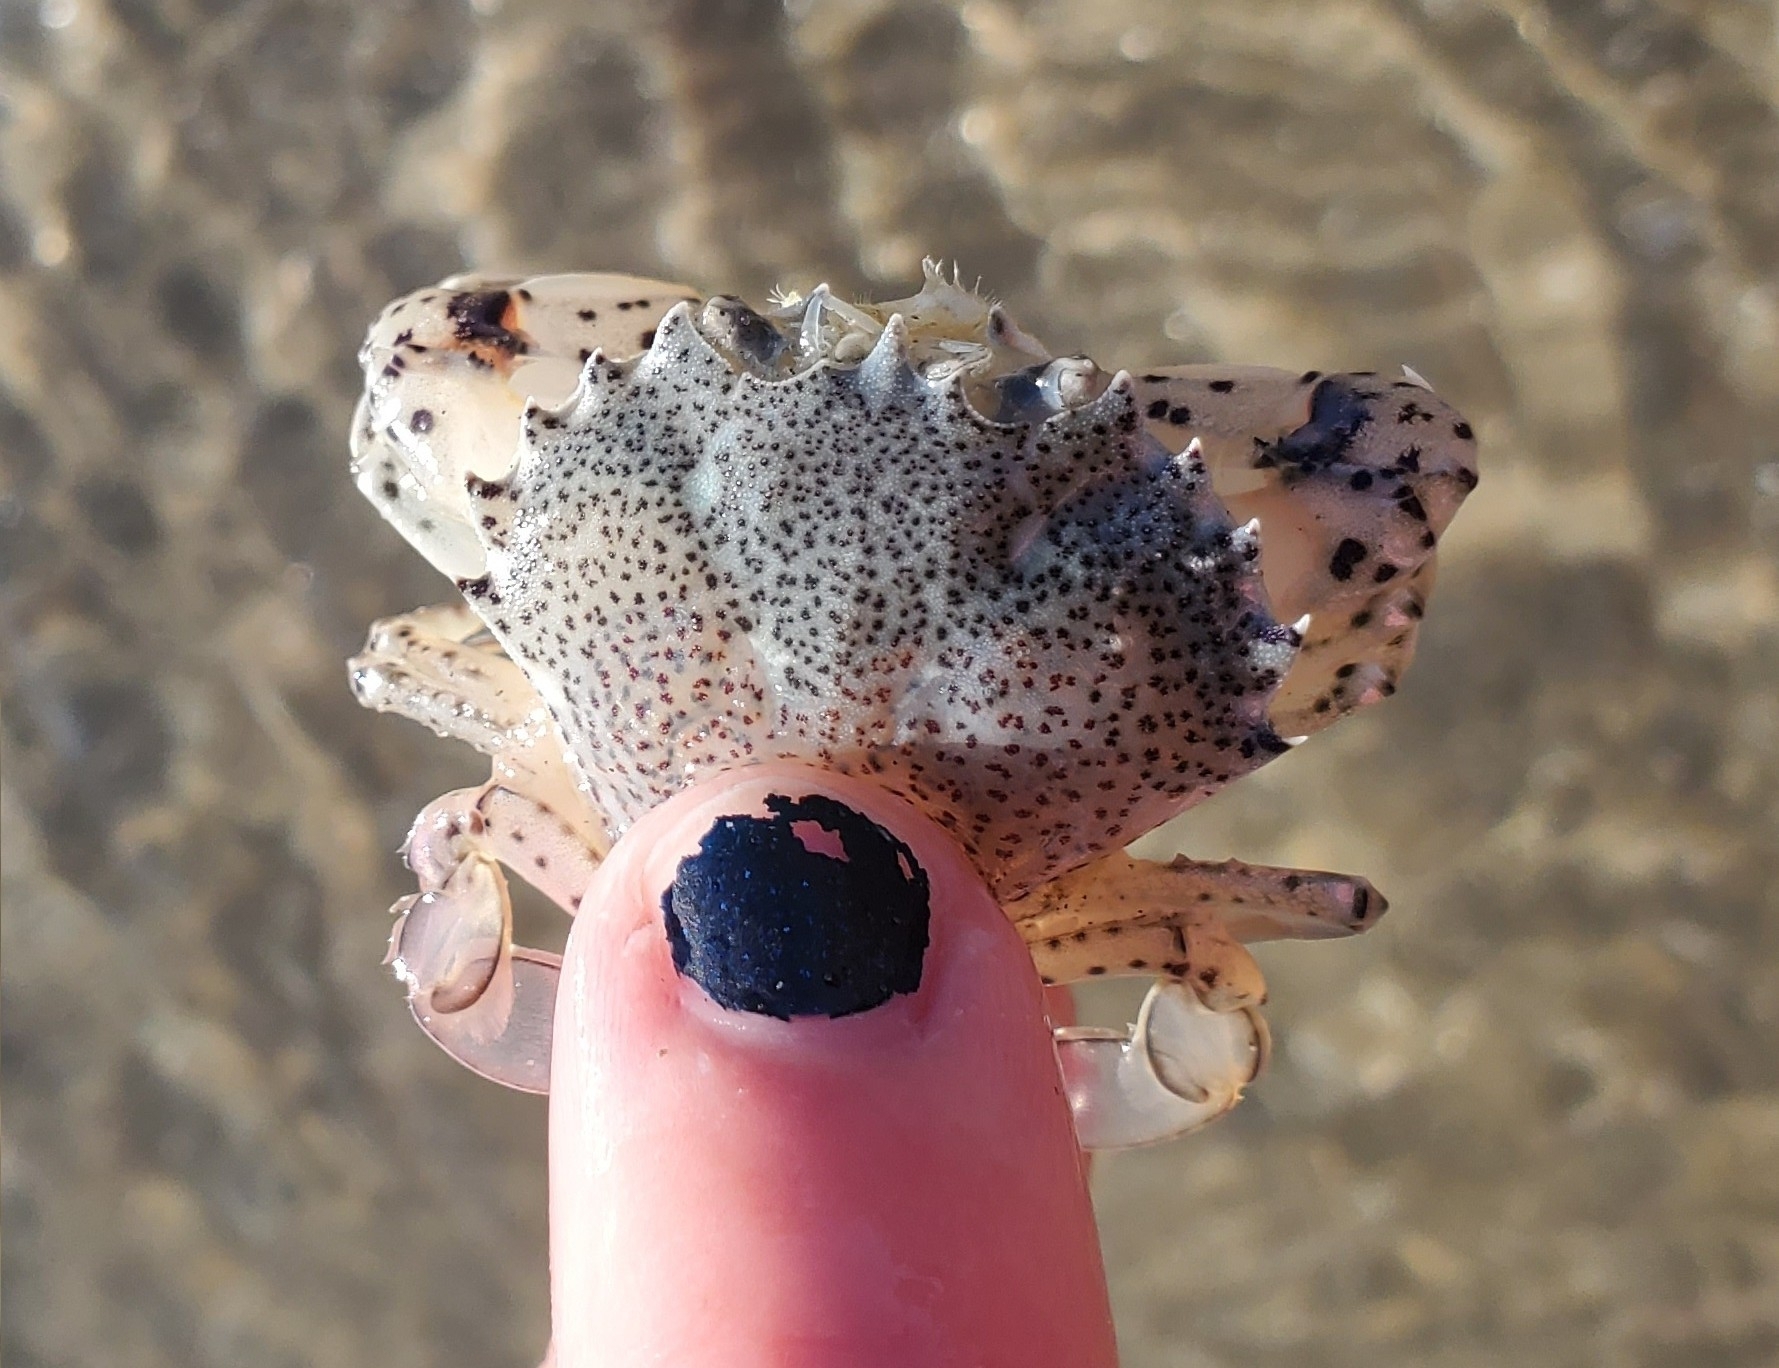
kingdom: Animalia
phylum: Arthropoda
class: Malacostraca
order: Decapoda
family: Ovalipidae
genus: Ovalipes
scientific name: Ovalipes ocellatus
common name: Lady crab
